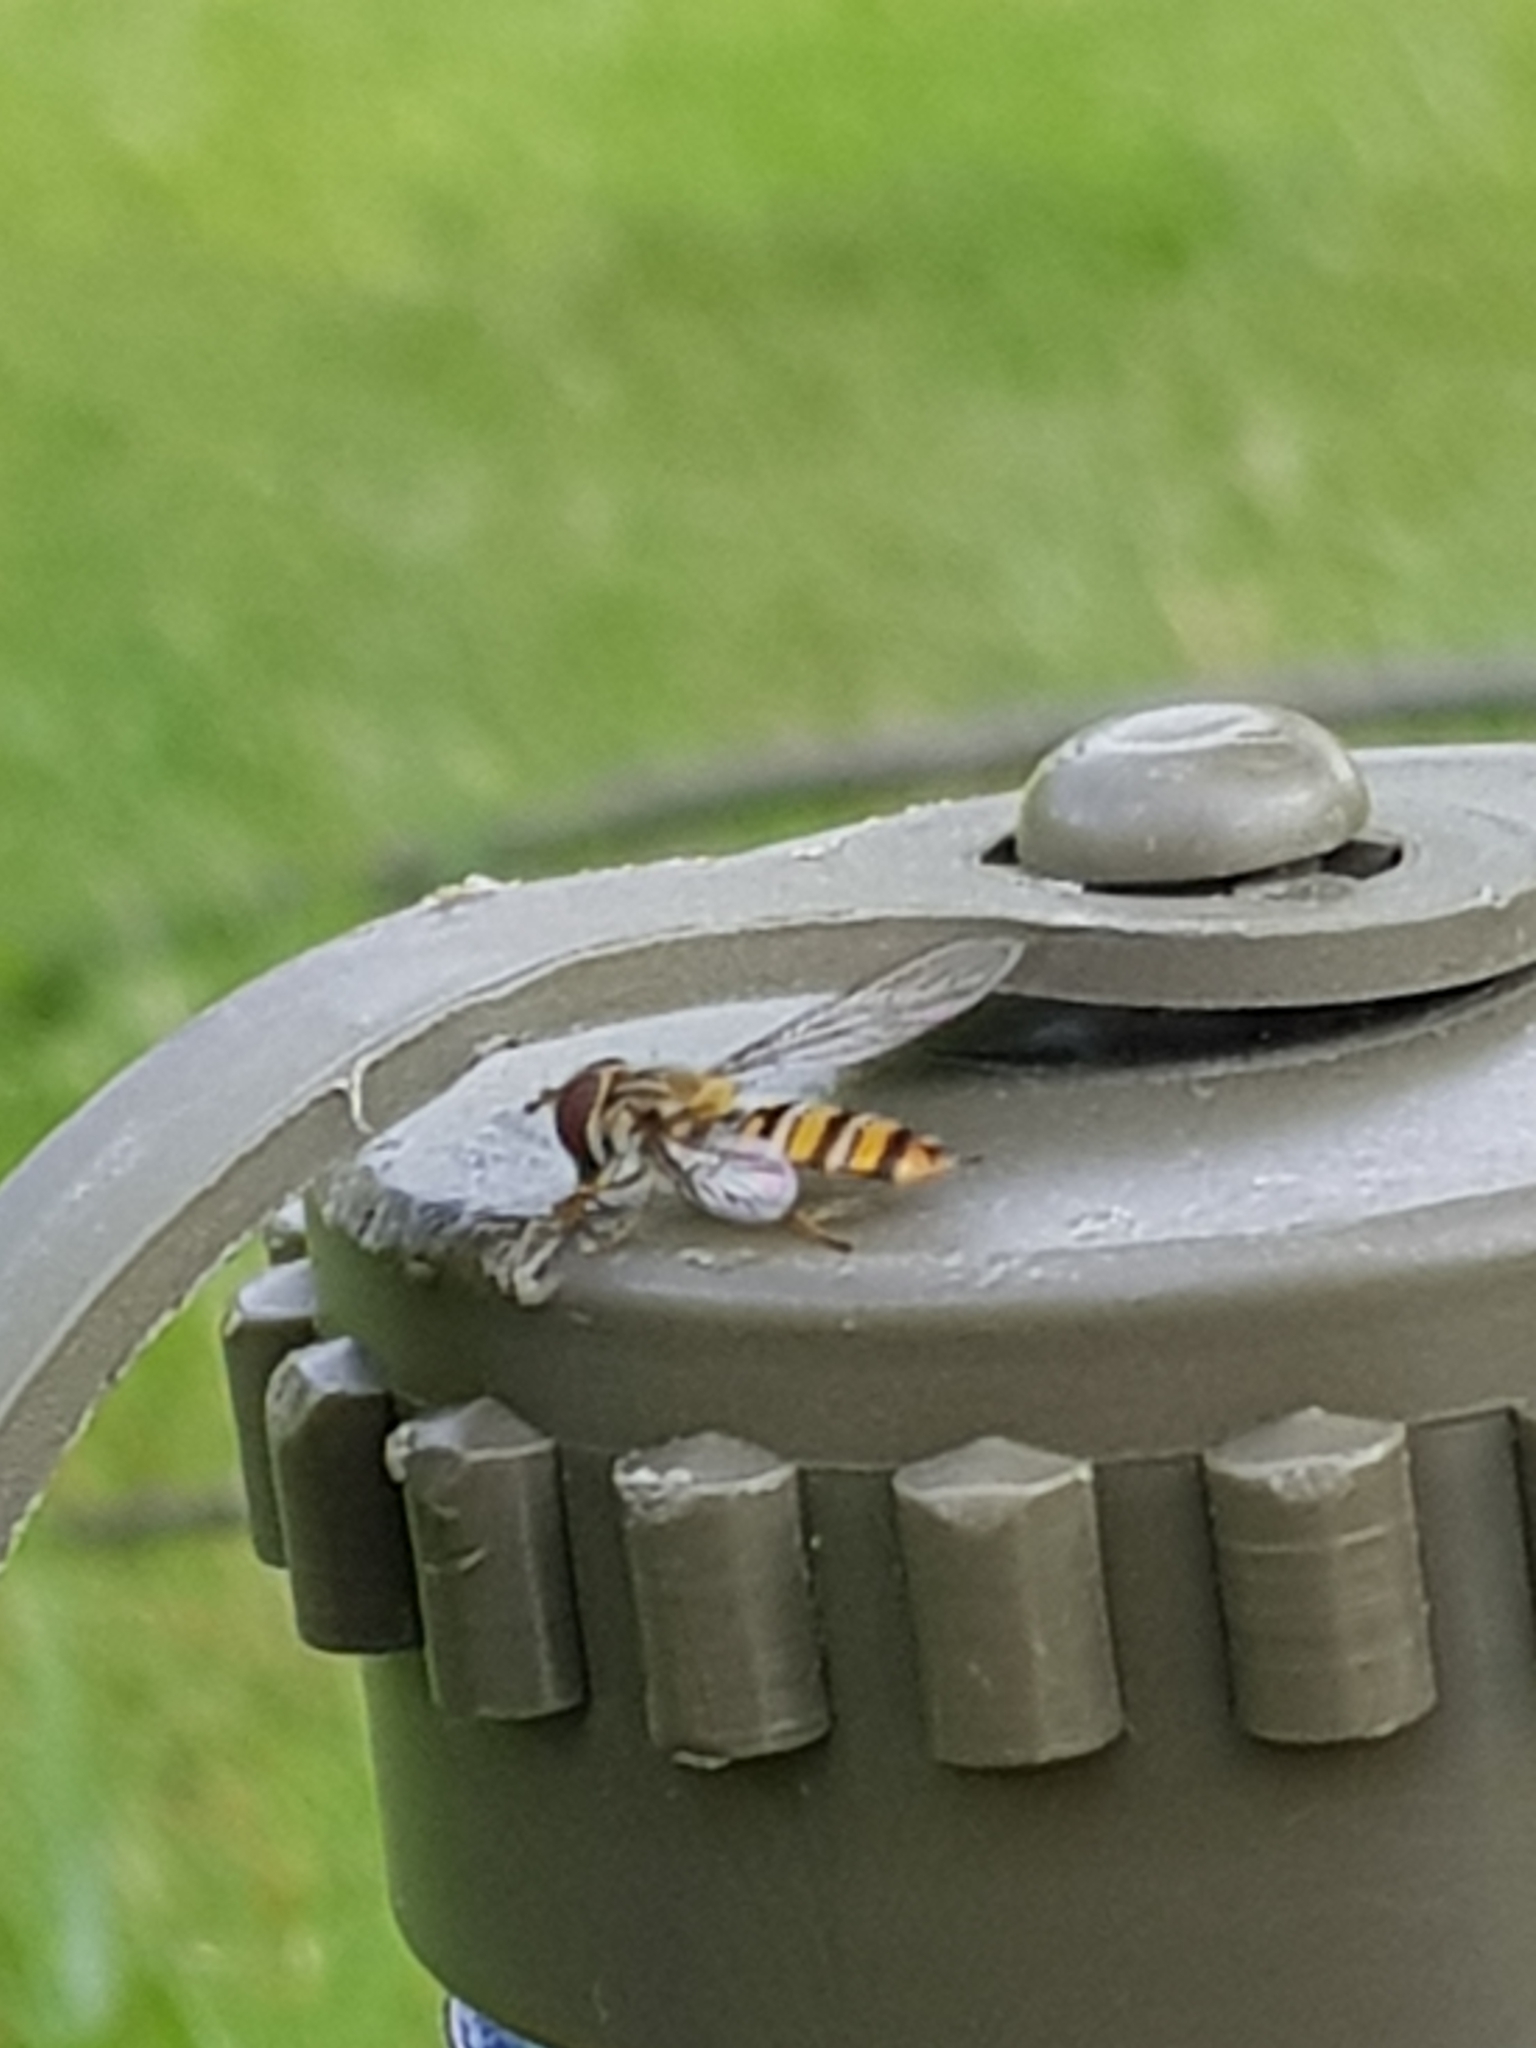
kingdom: Animalia
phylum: Arthropoda
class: Insecta
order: Diptera
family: Syrphidae
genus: Episyrphus
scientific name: Episyrphus balteatus
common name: Marmalade hoverfly
